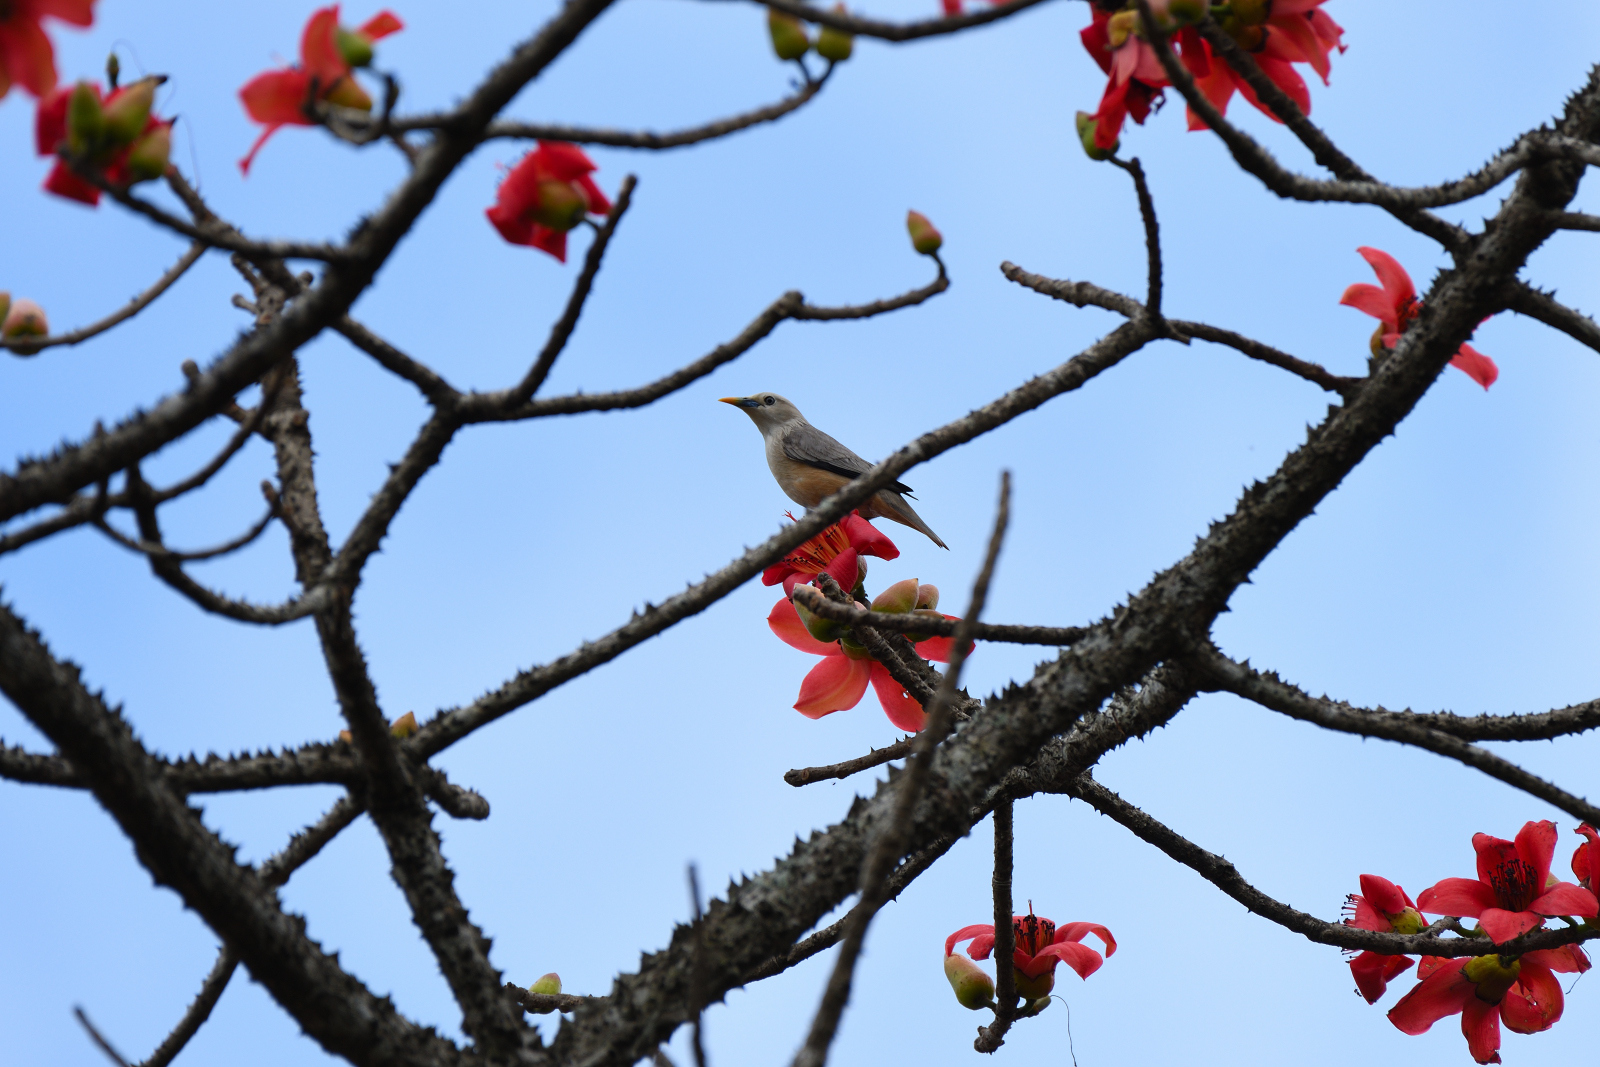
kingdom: Animalia
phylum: Chordata
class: Aves
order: Passeriformes
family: Sturnidae
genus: Sturnia
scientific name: Sturnia malabarica
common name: Chestnut-tailed starling
